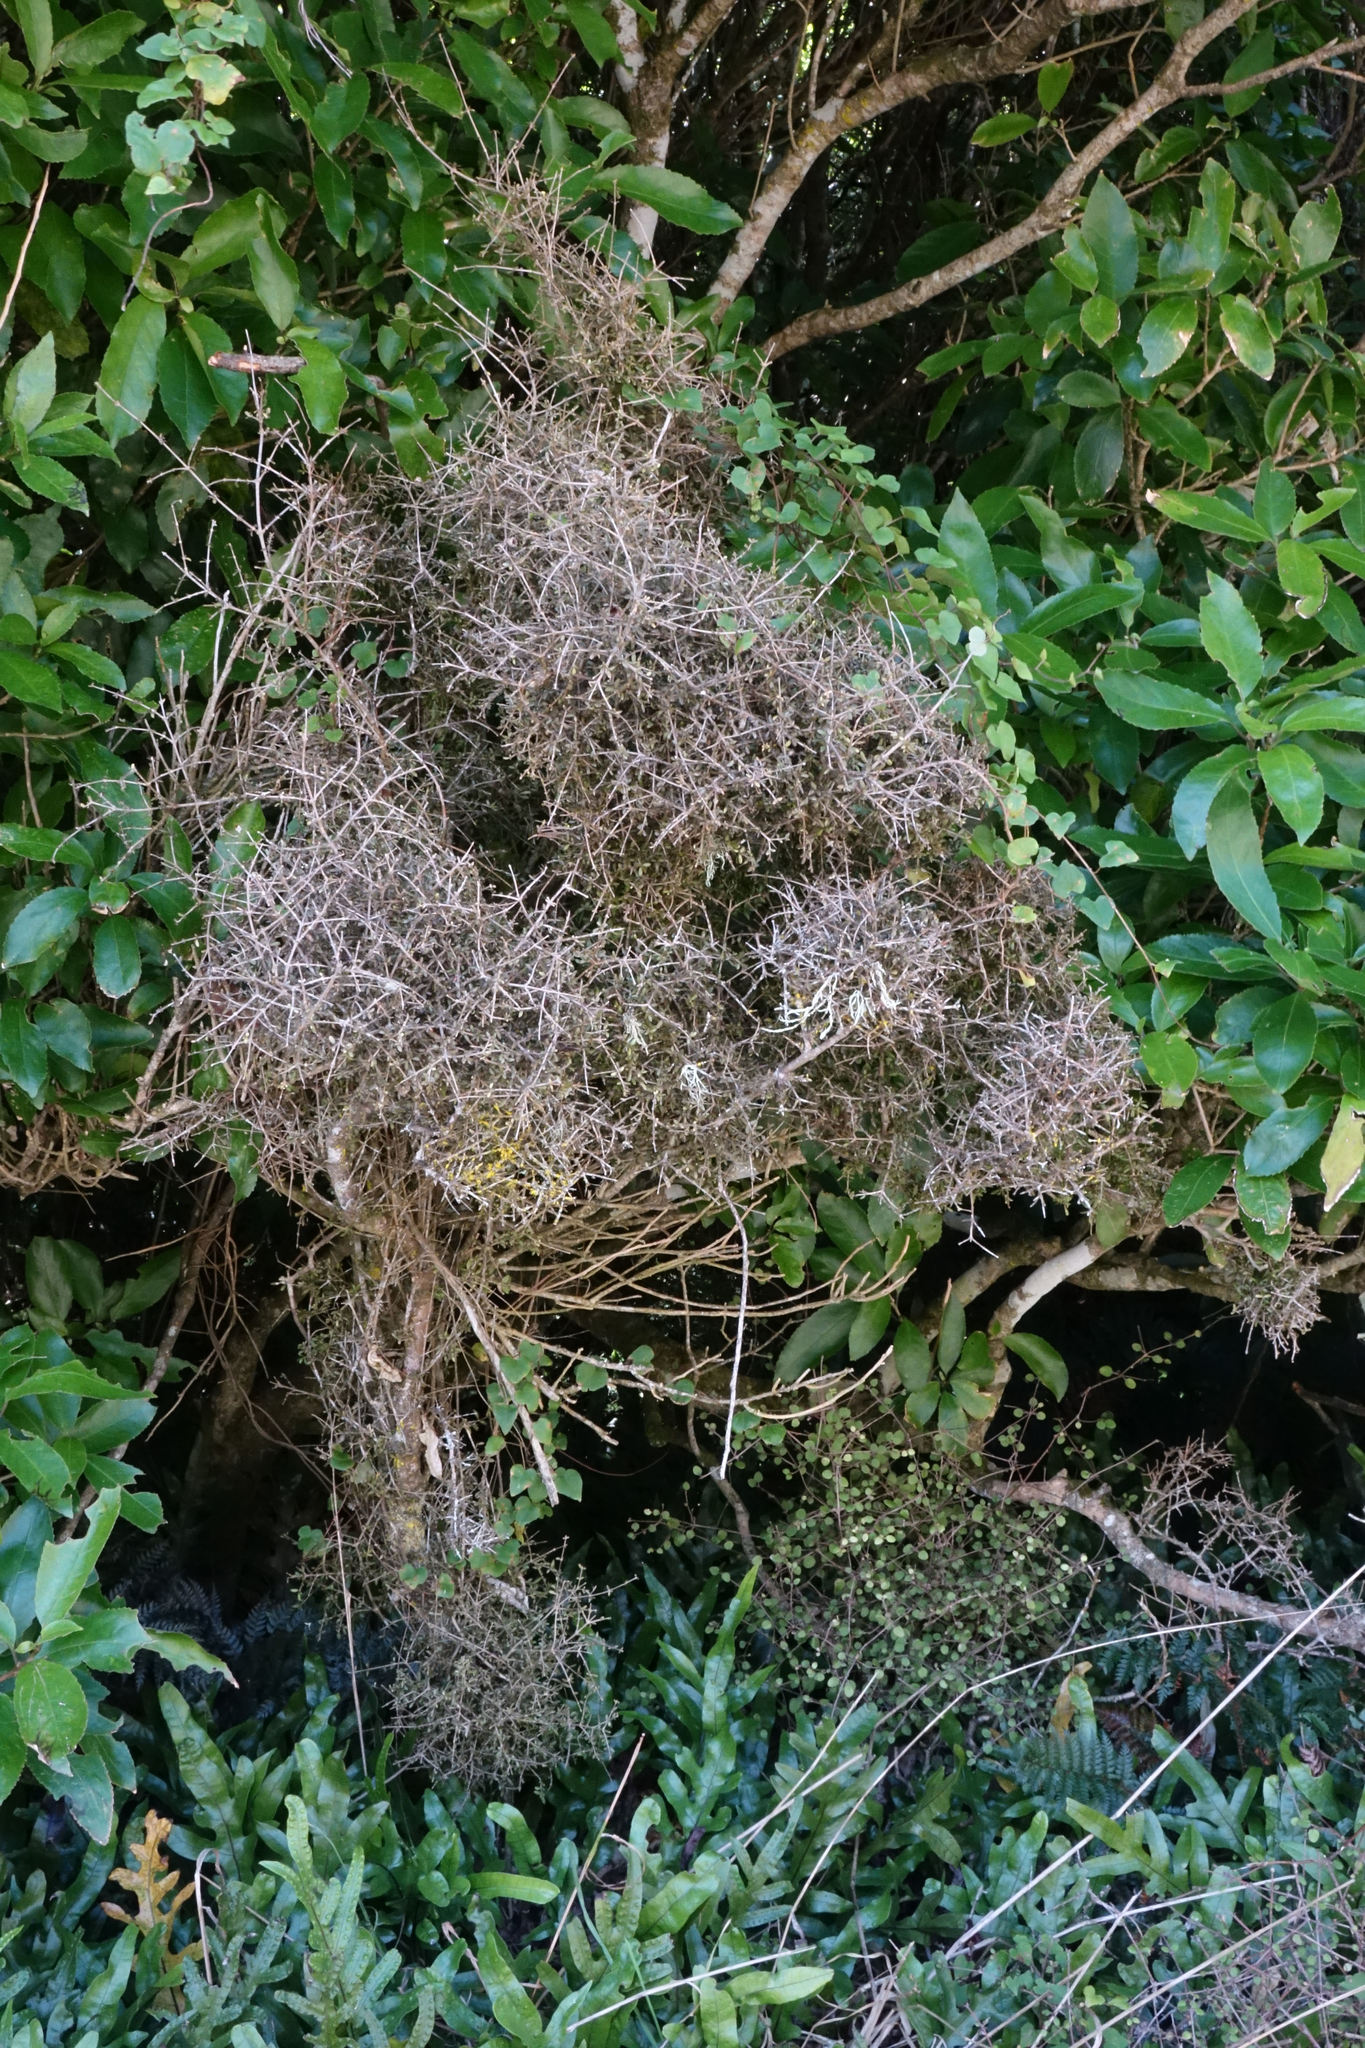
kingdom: Plantae
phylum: Tracheophyta
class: Magnoliopsida
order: Gentianales
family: Rubiaceae
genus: Coprosma
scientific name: Coprosma obconica
